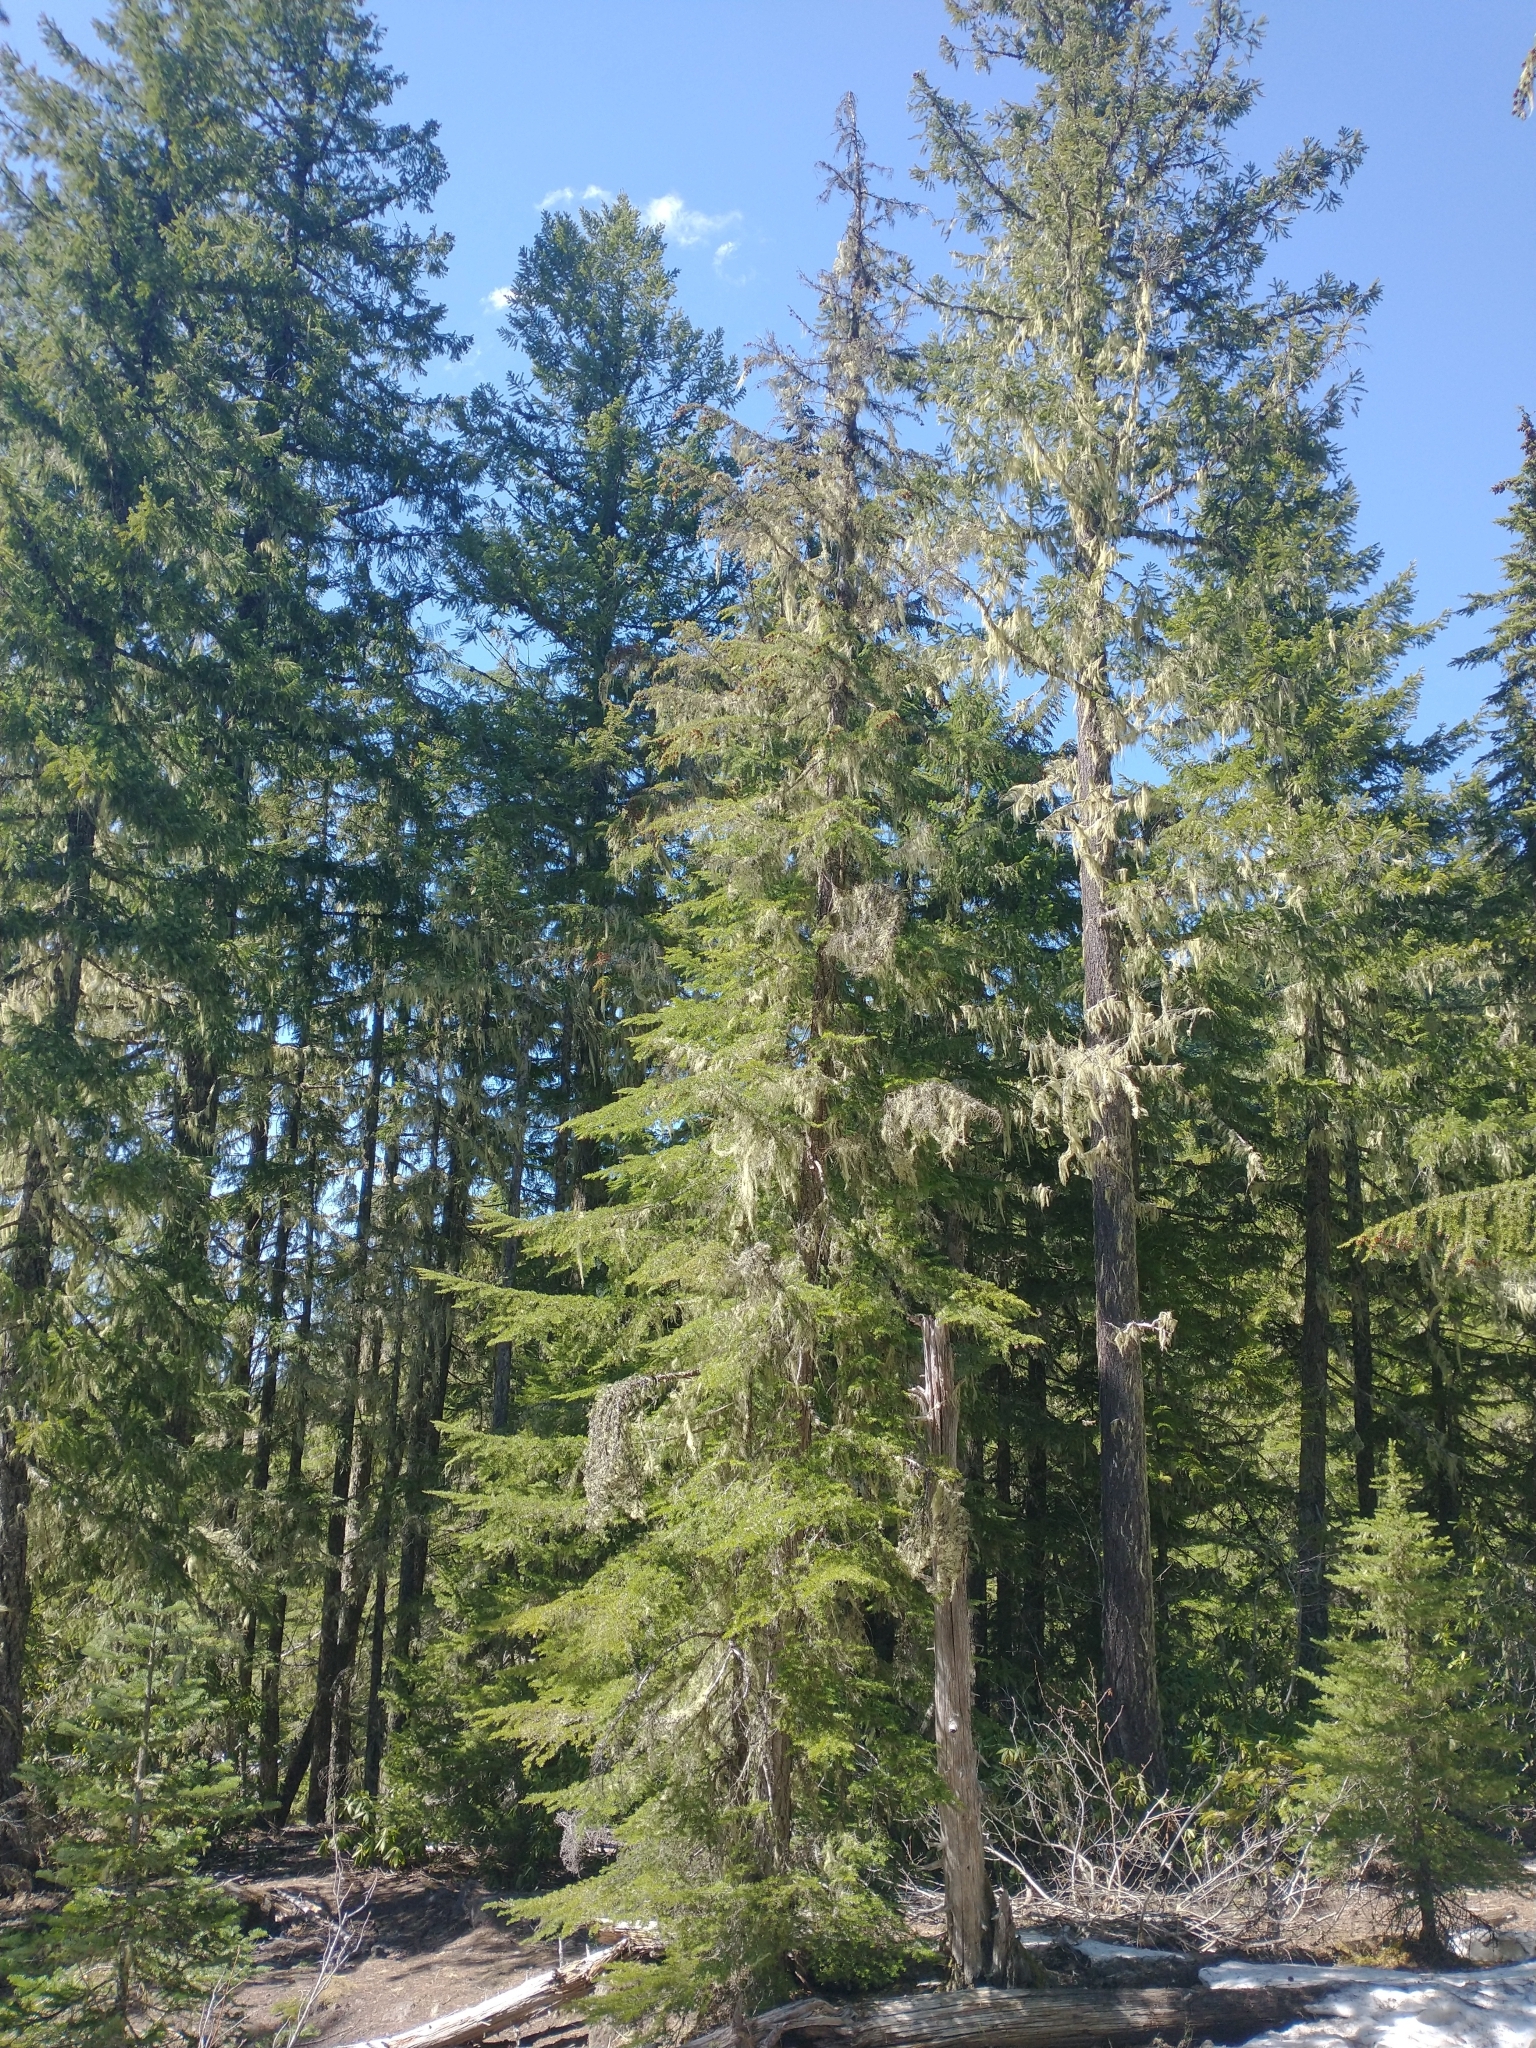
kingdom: Plantae
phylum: Tracheophyta
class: Pinopsida
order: Pinales
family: Pinaceae
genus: Tsuga
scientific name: Tsuga heterophylla
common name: Western hemlock
